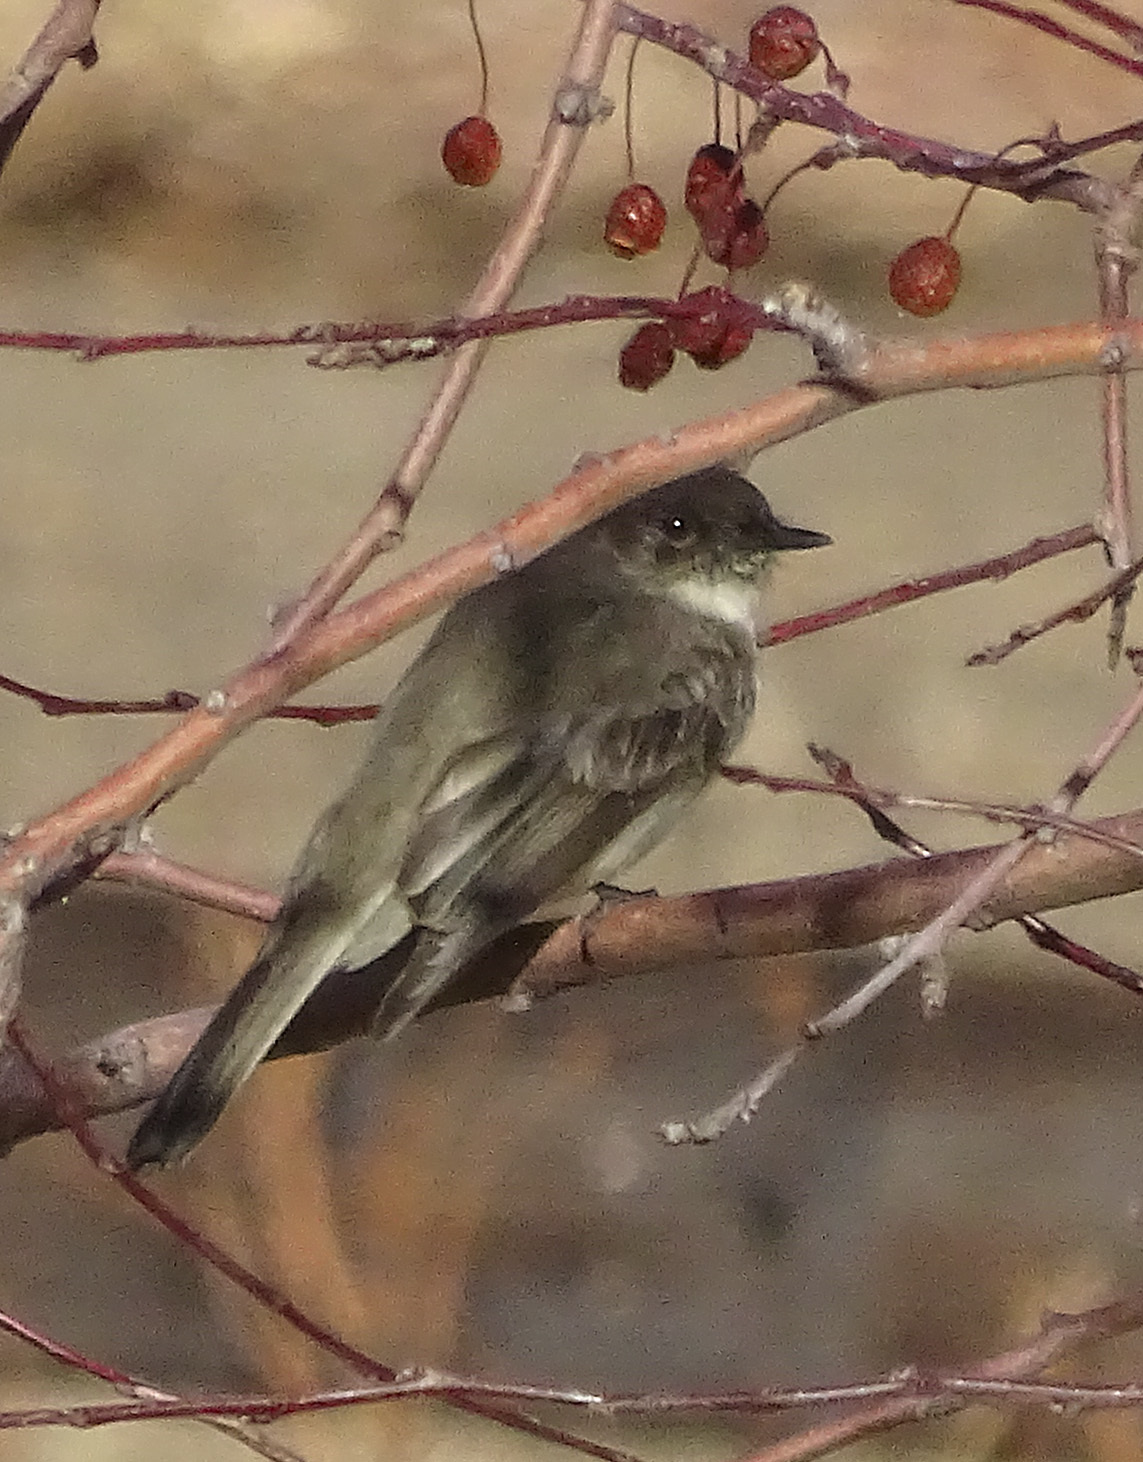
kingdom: Animalia
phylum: Chordata
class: Aves
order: Passeriformes
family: Tyrannidae
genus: Sayornis
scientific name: Sayornis phoebe
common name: Eastern phoebe
